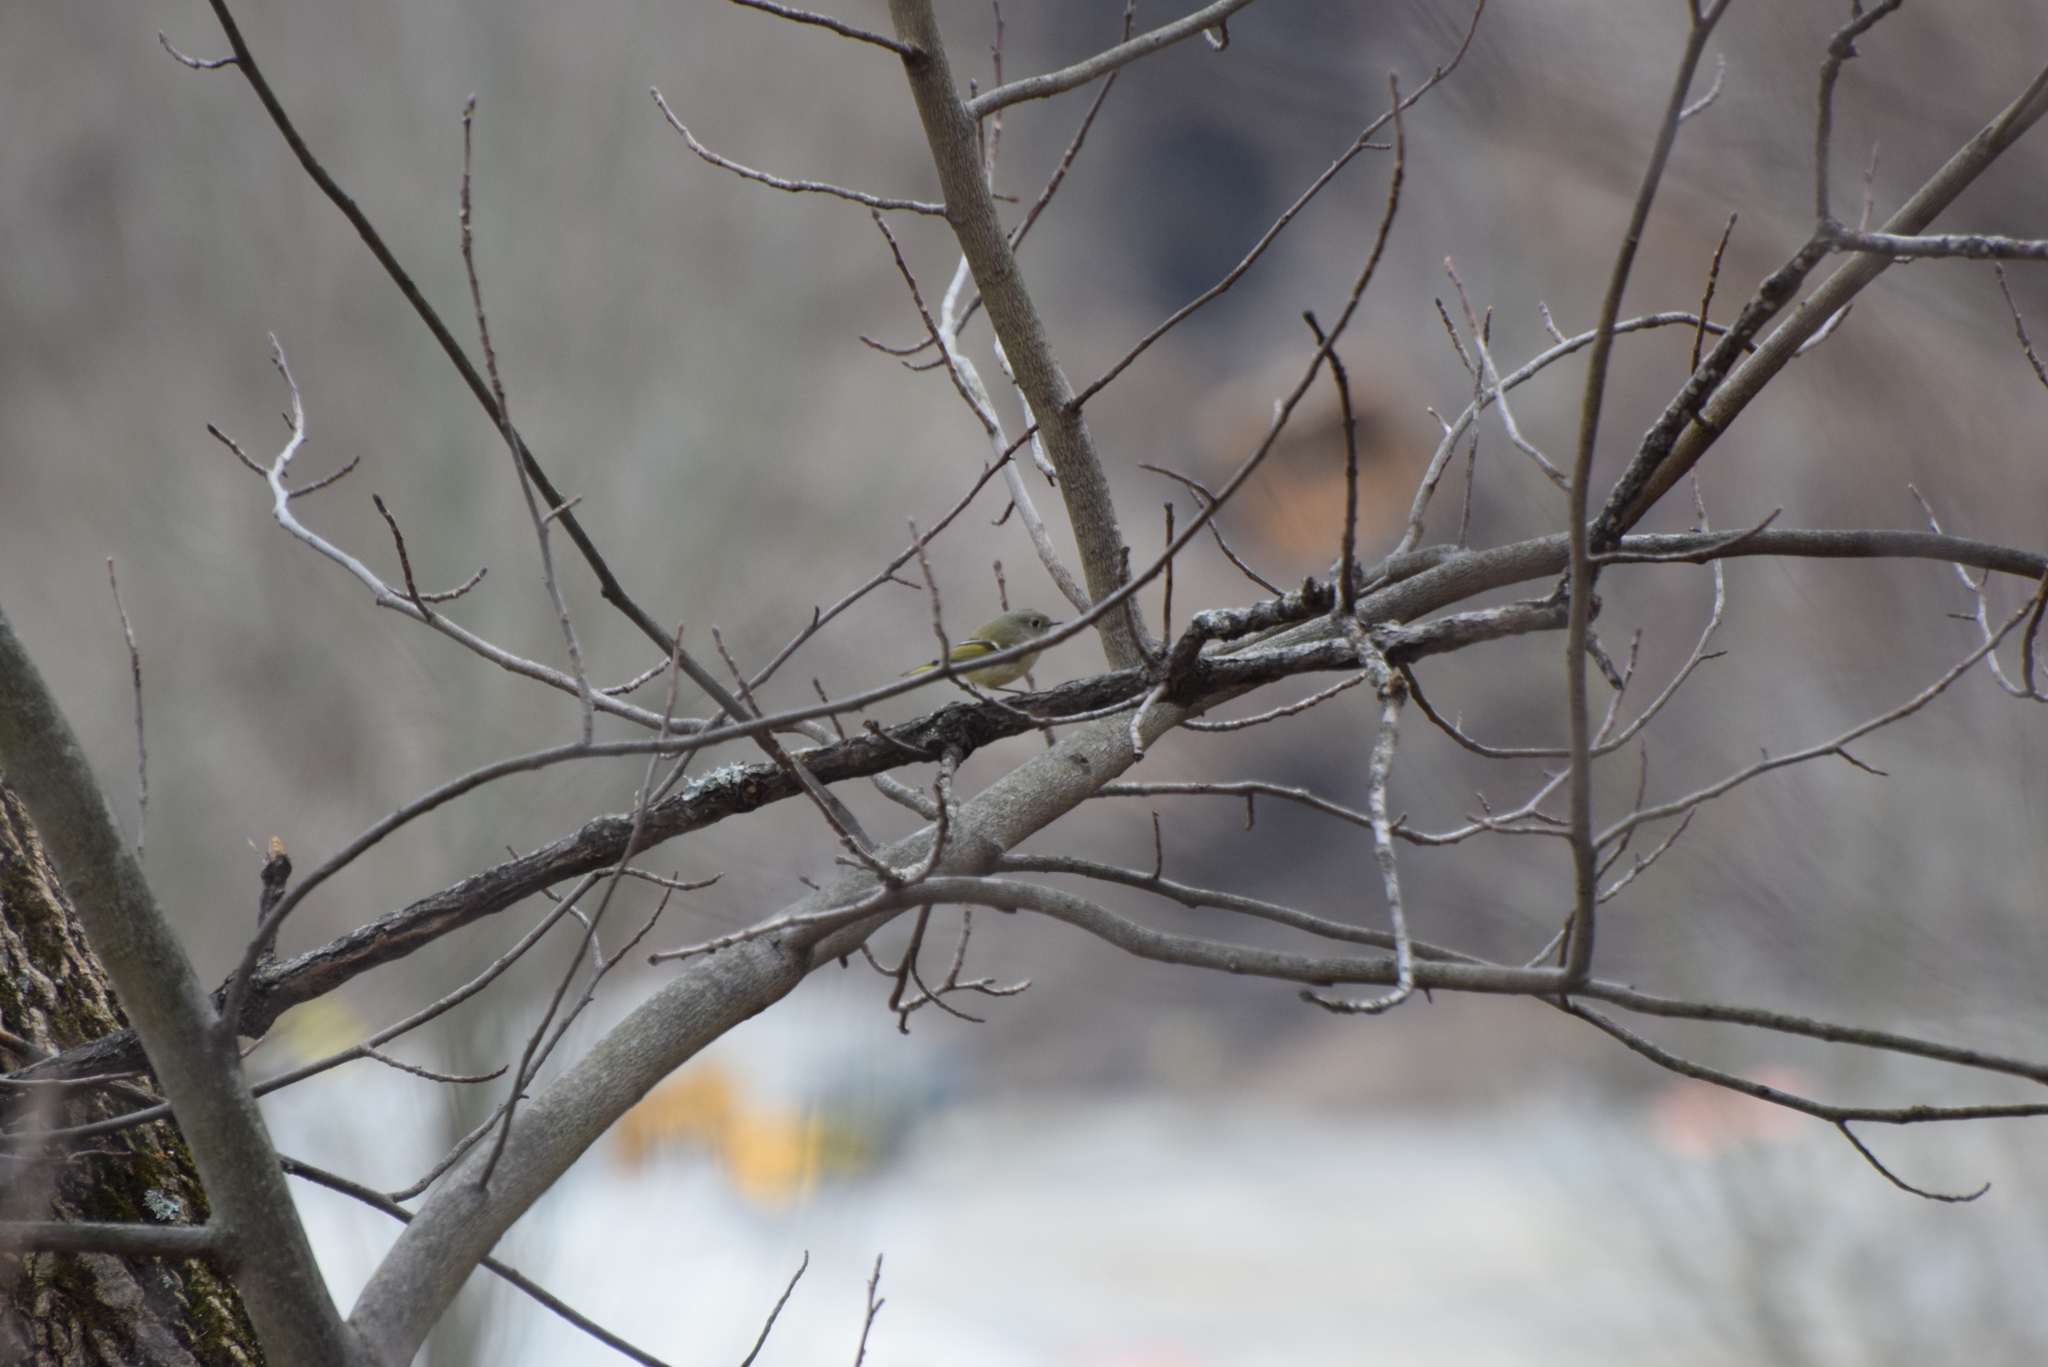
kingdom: Animalia
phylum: Chordata
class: Aves
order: Passeriformes
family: Regulidae
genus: Regulus
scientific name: Regulus calendula
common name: Ruby-crowned kinglet
